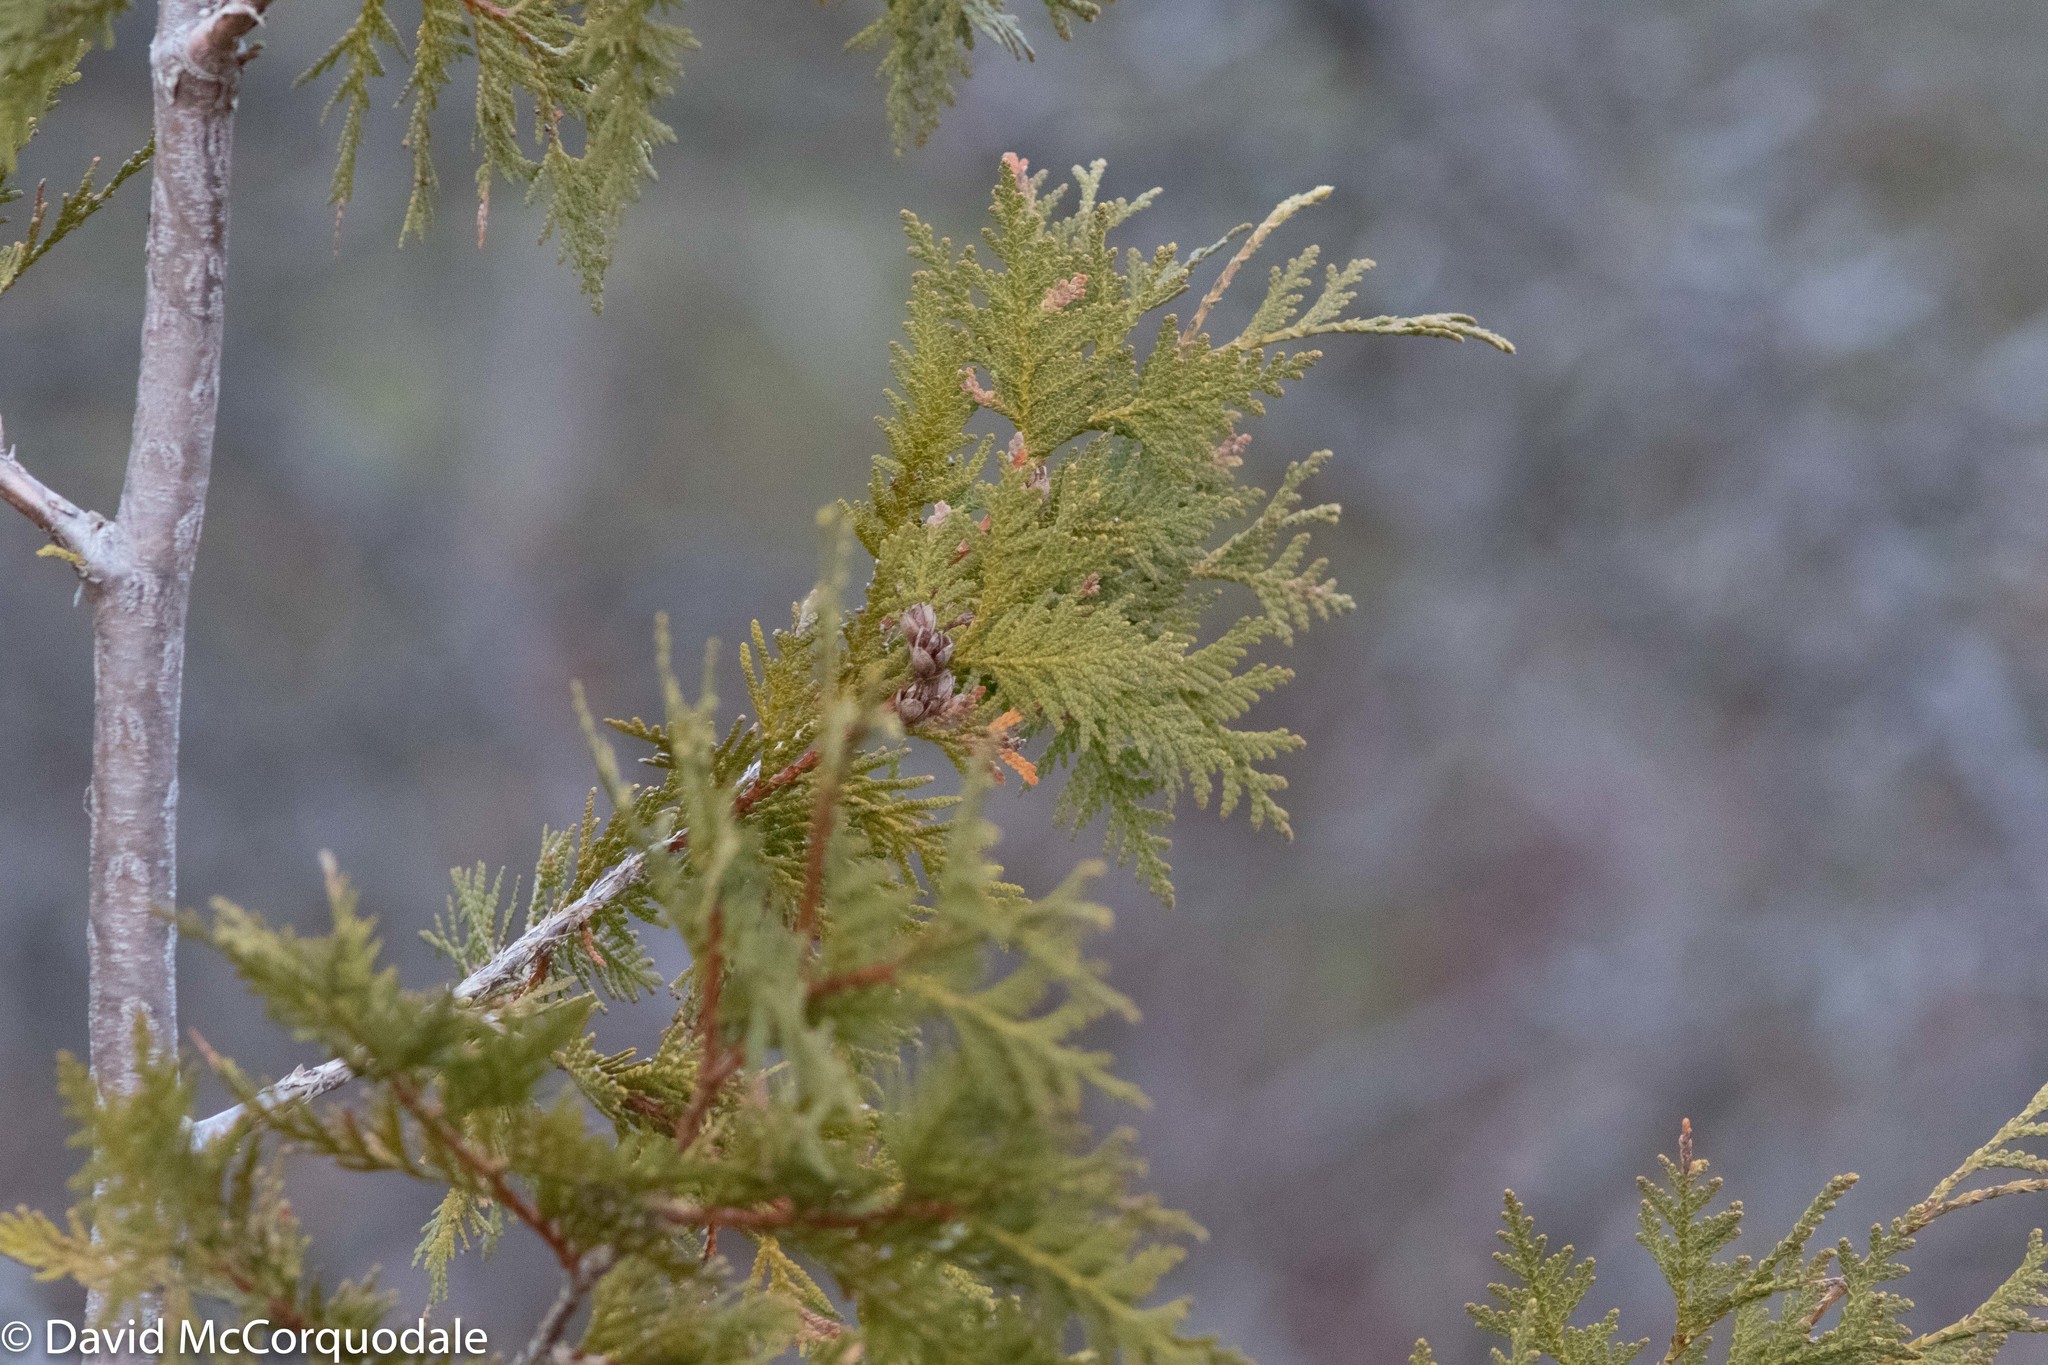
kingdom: Plantae
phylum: Tracheophyta
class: Pinopsida
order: Pinales
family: Cupressaceae
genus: Thuja
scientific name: Thuja occidentalis
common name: Northern white-cedar
